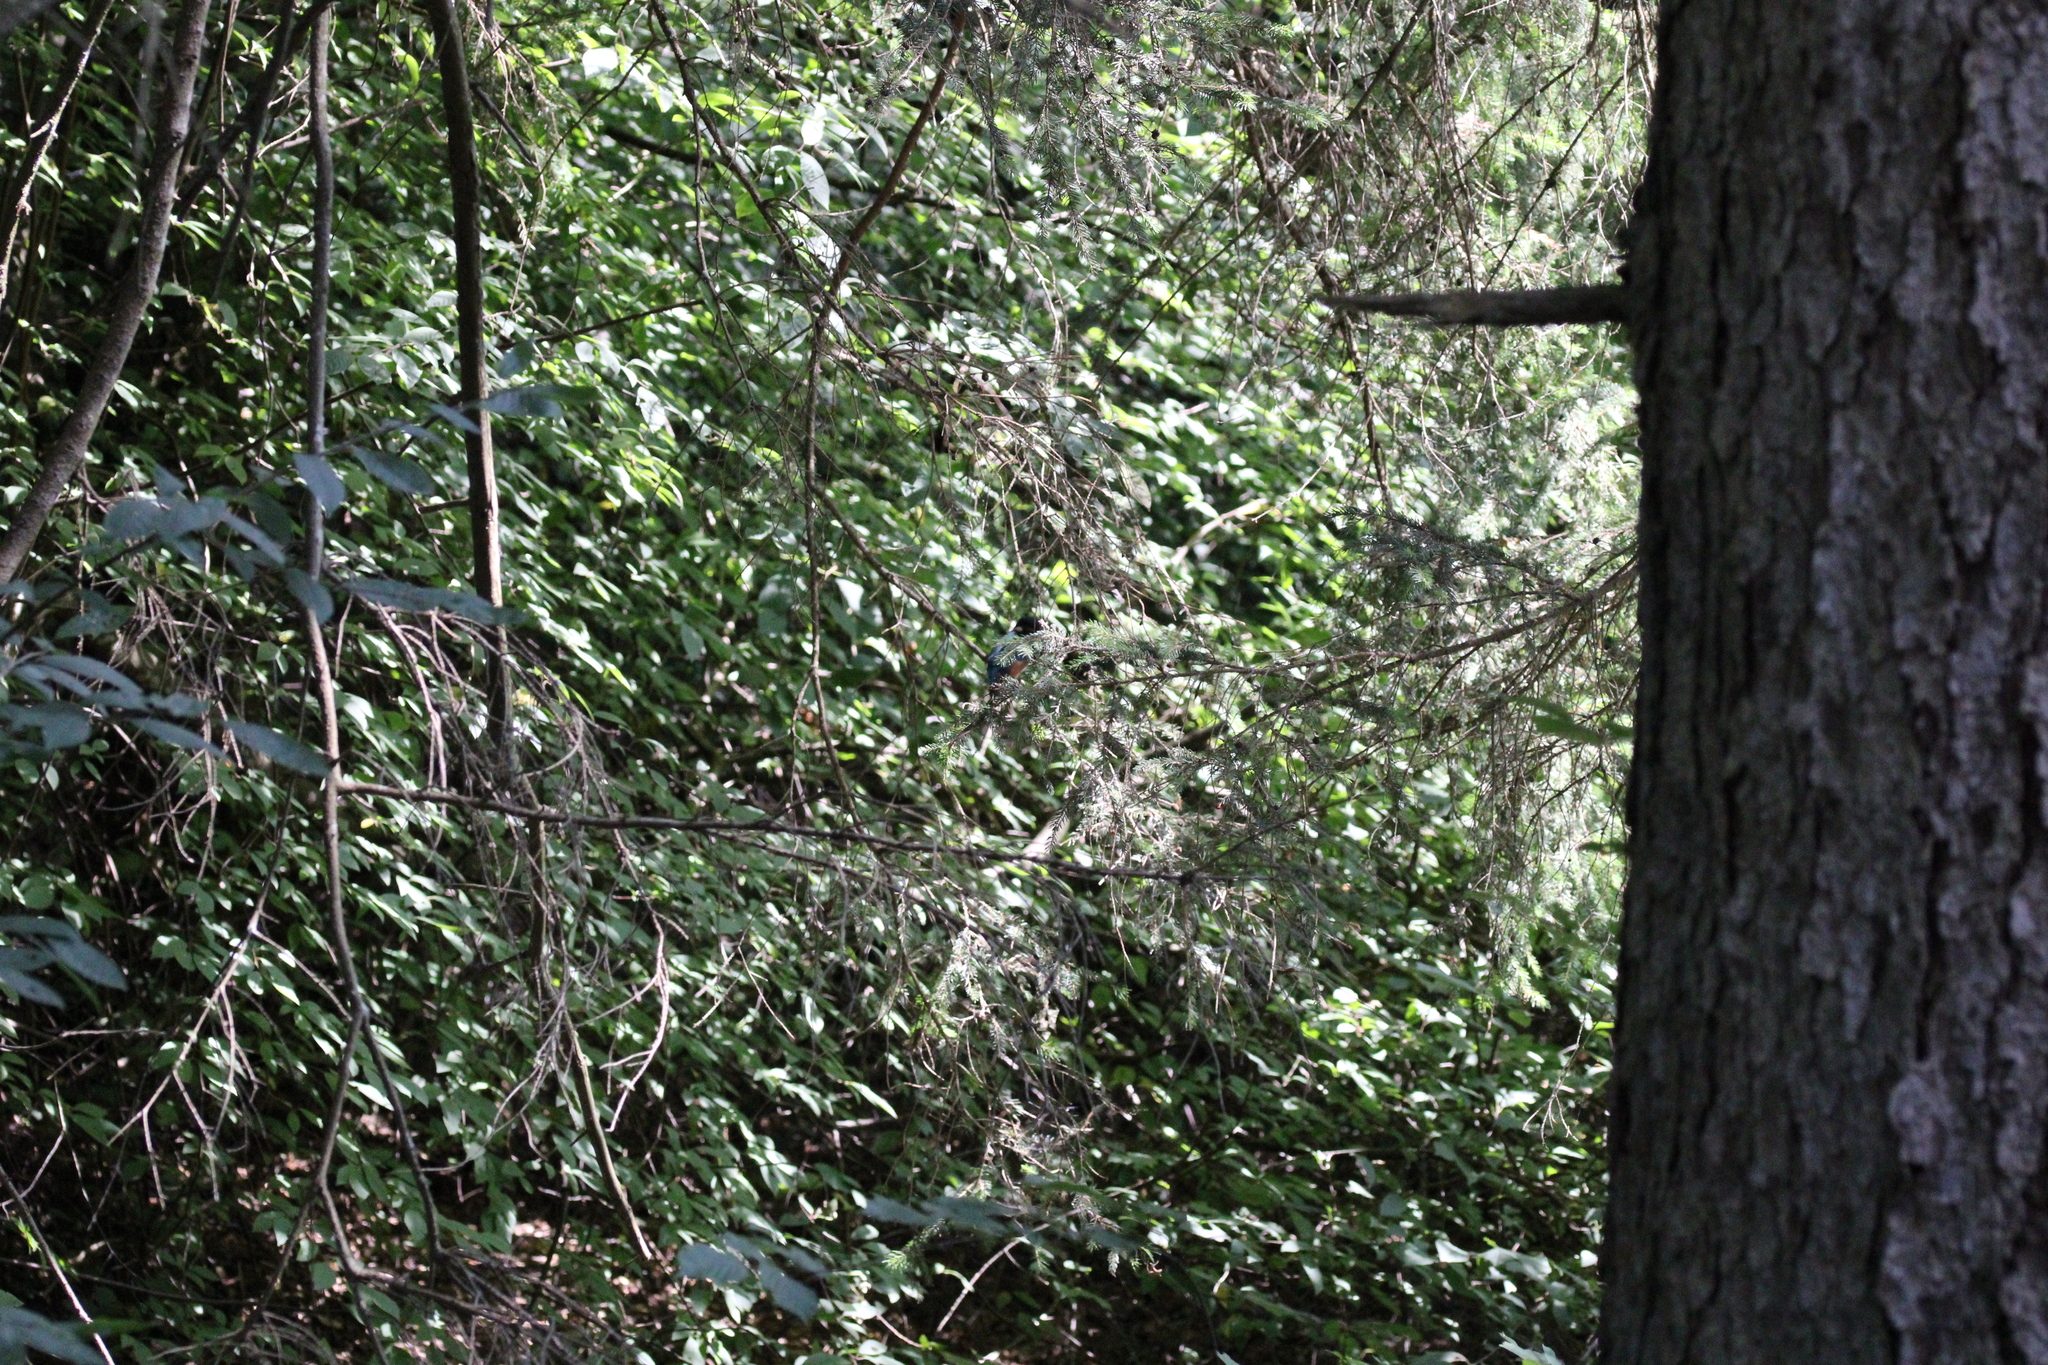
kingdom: Animalia
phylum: Chordata
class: Aves
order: Coraciiformes
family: Alcedinidae
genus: Alcedo
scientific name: Alcedo atthis
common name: Common kingfisher
